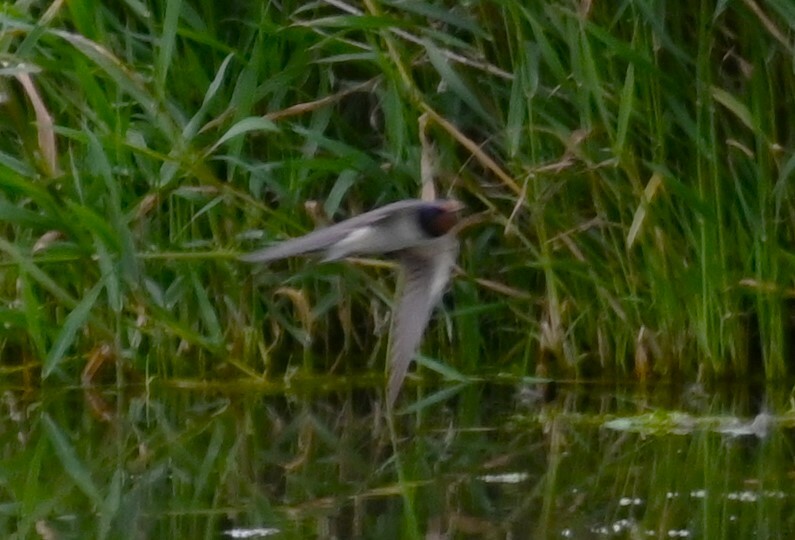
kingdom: Animalia
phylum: Chordata
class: Aves
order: Passeriformes
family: Hirundinidae
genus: Hirundo
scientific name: Hirundo rustica
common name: Barn swallow
